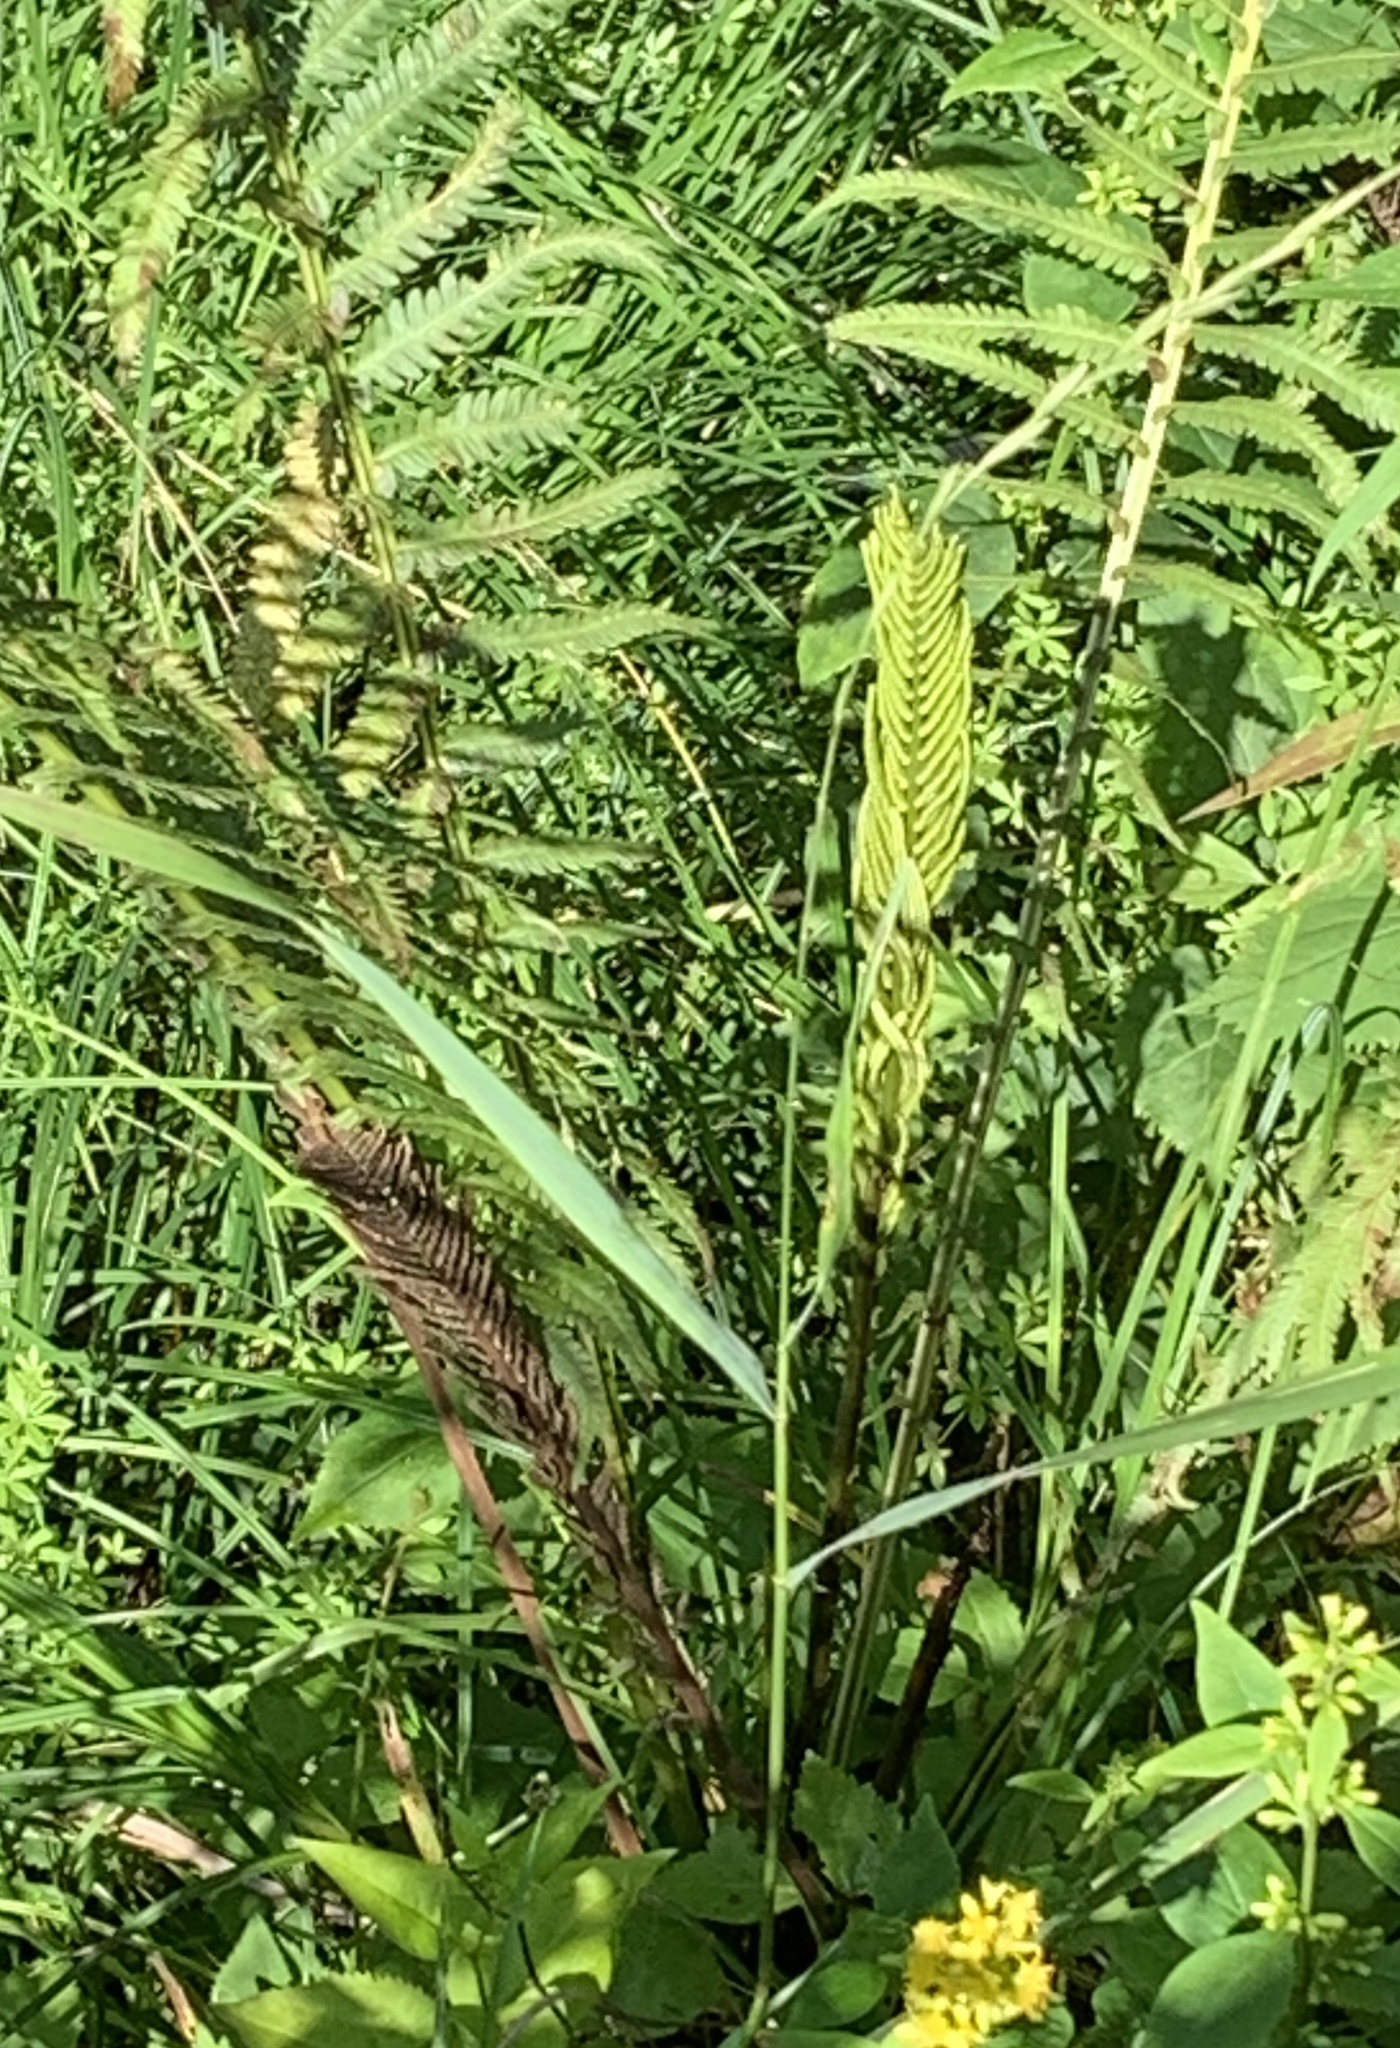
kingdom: Plantae
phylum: Tracheophyta
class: Polypodiopsida
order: Polypodiales
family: Onocleaceae
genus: Matteuccia
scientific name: Matteuccia struthiopteris
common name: Ostrich fern
